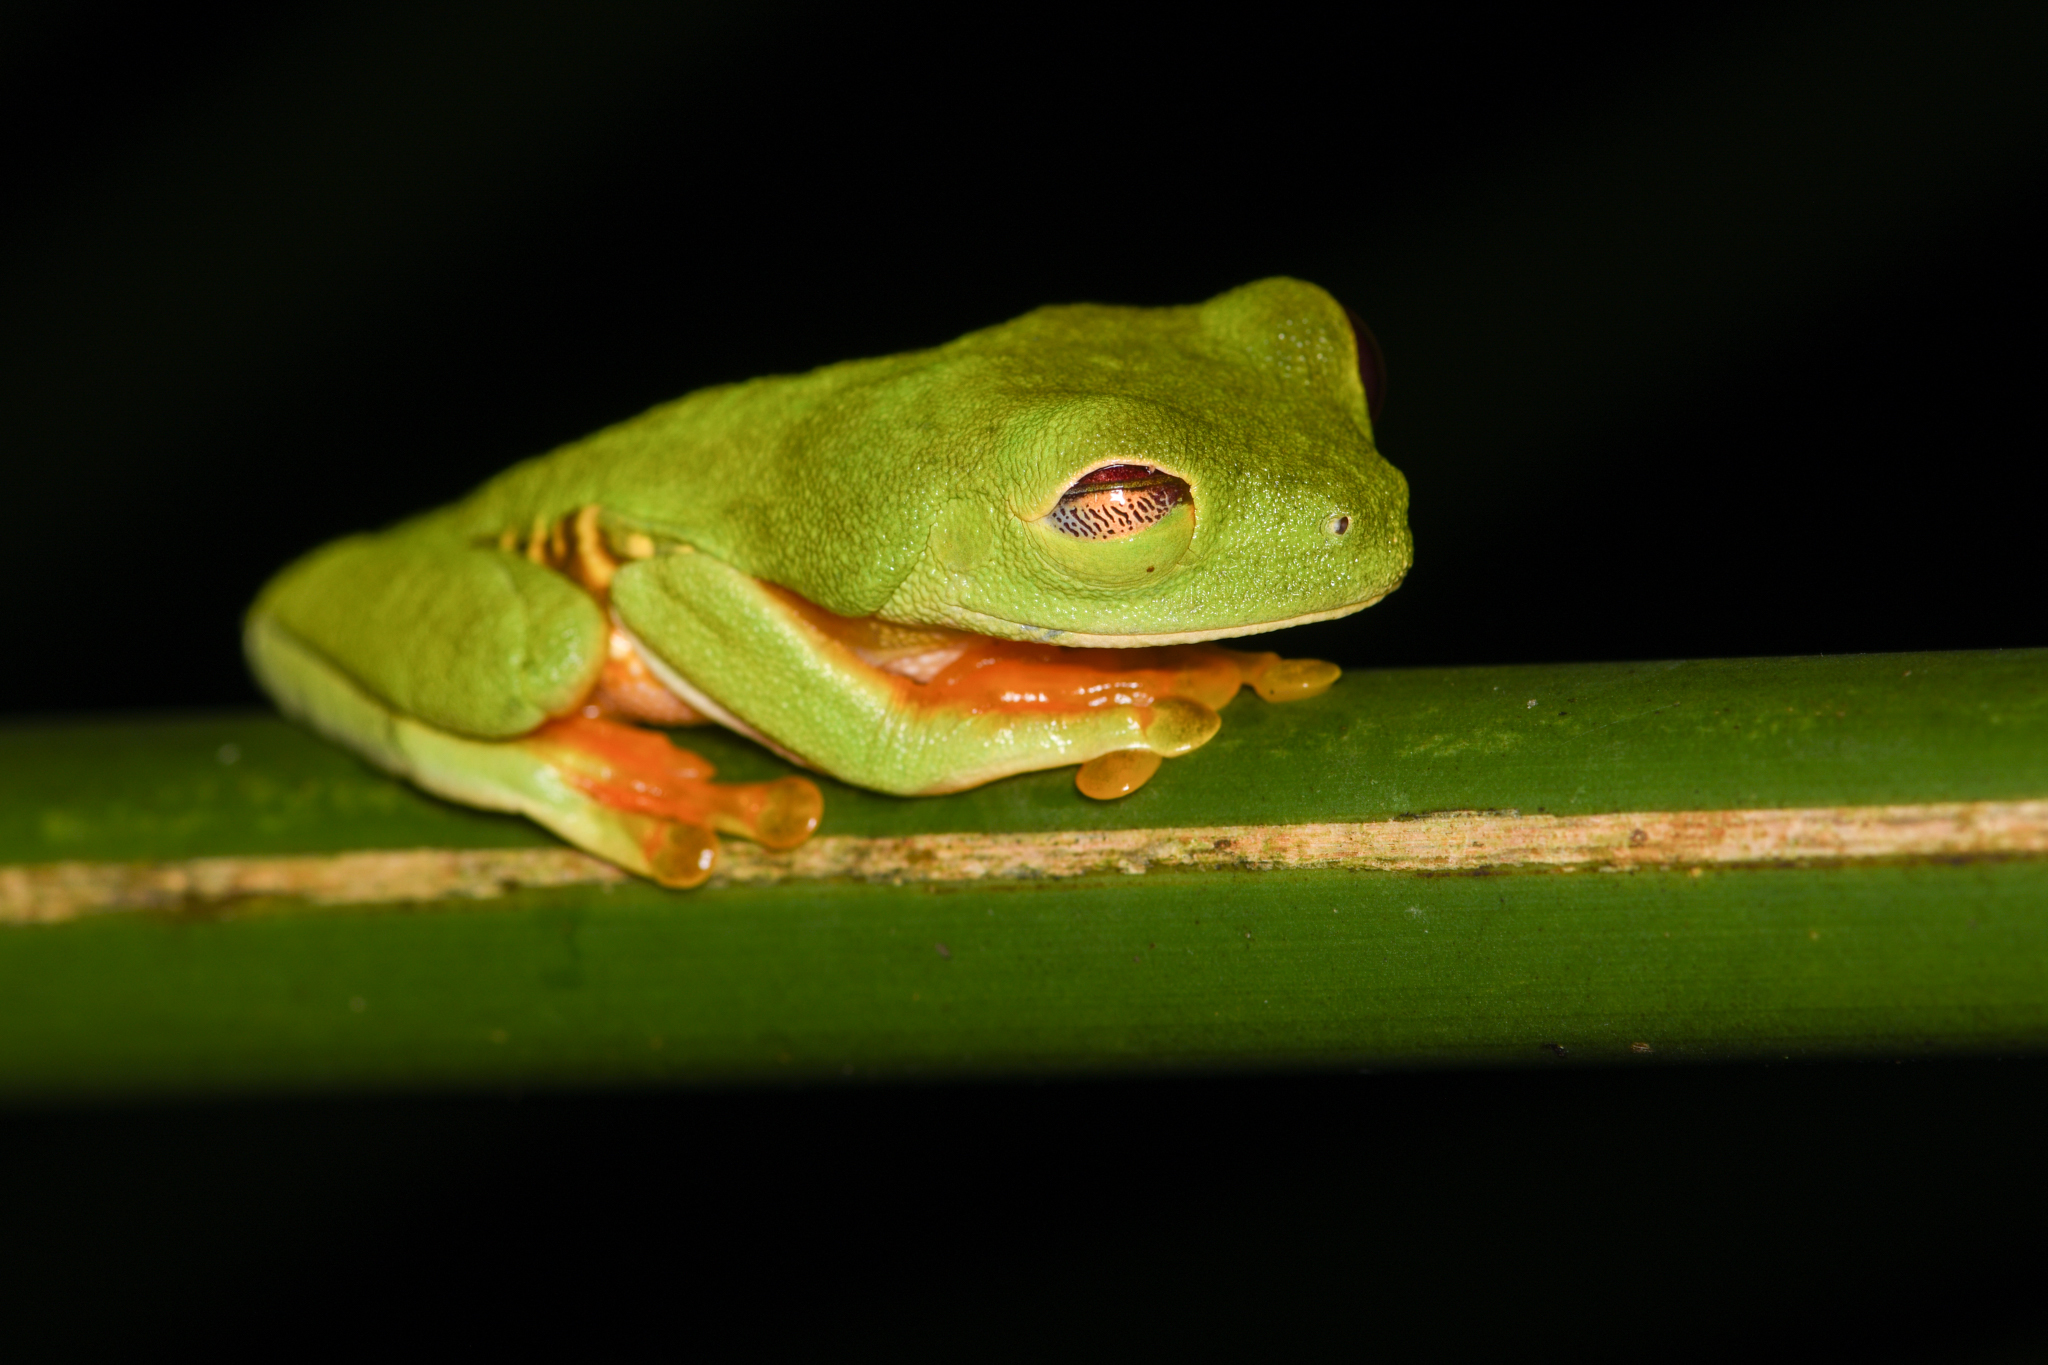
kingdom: Animalia
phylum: Chordata
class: Amphibia
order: Anura
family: Phyllomedusidae
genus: Agalychnis
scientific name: Agalychnis callidryas
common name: Red-eyed treefrog
